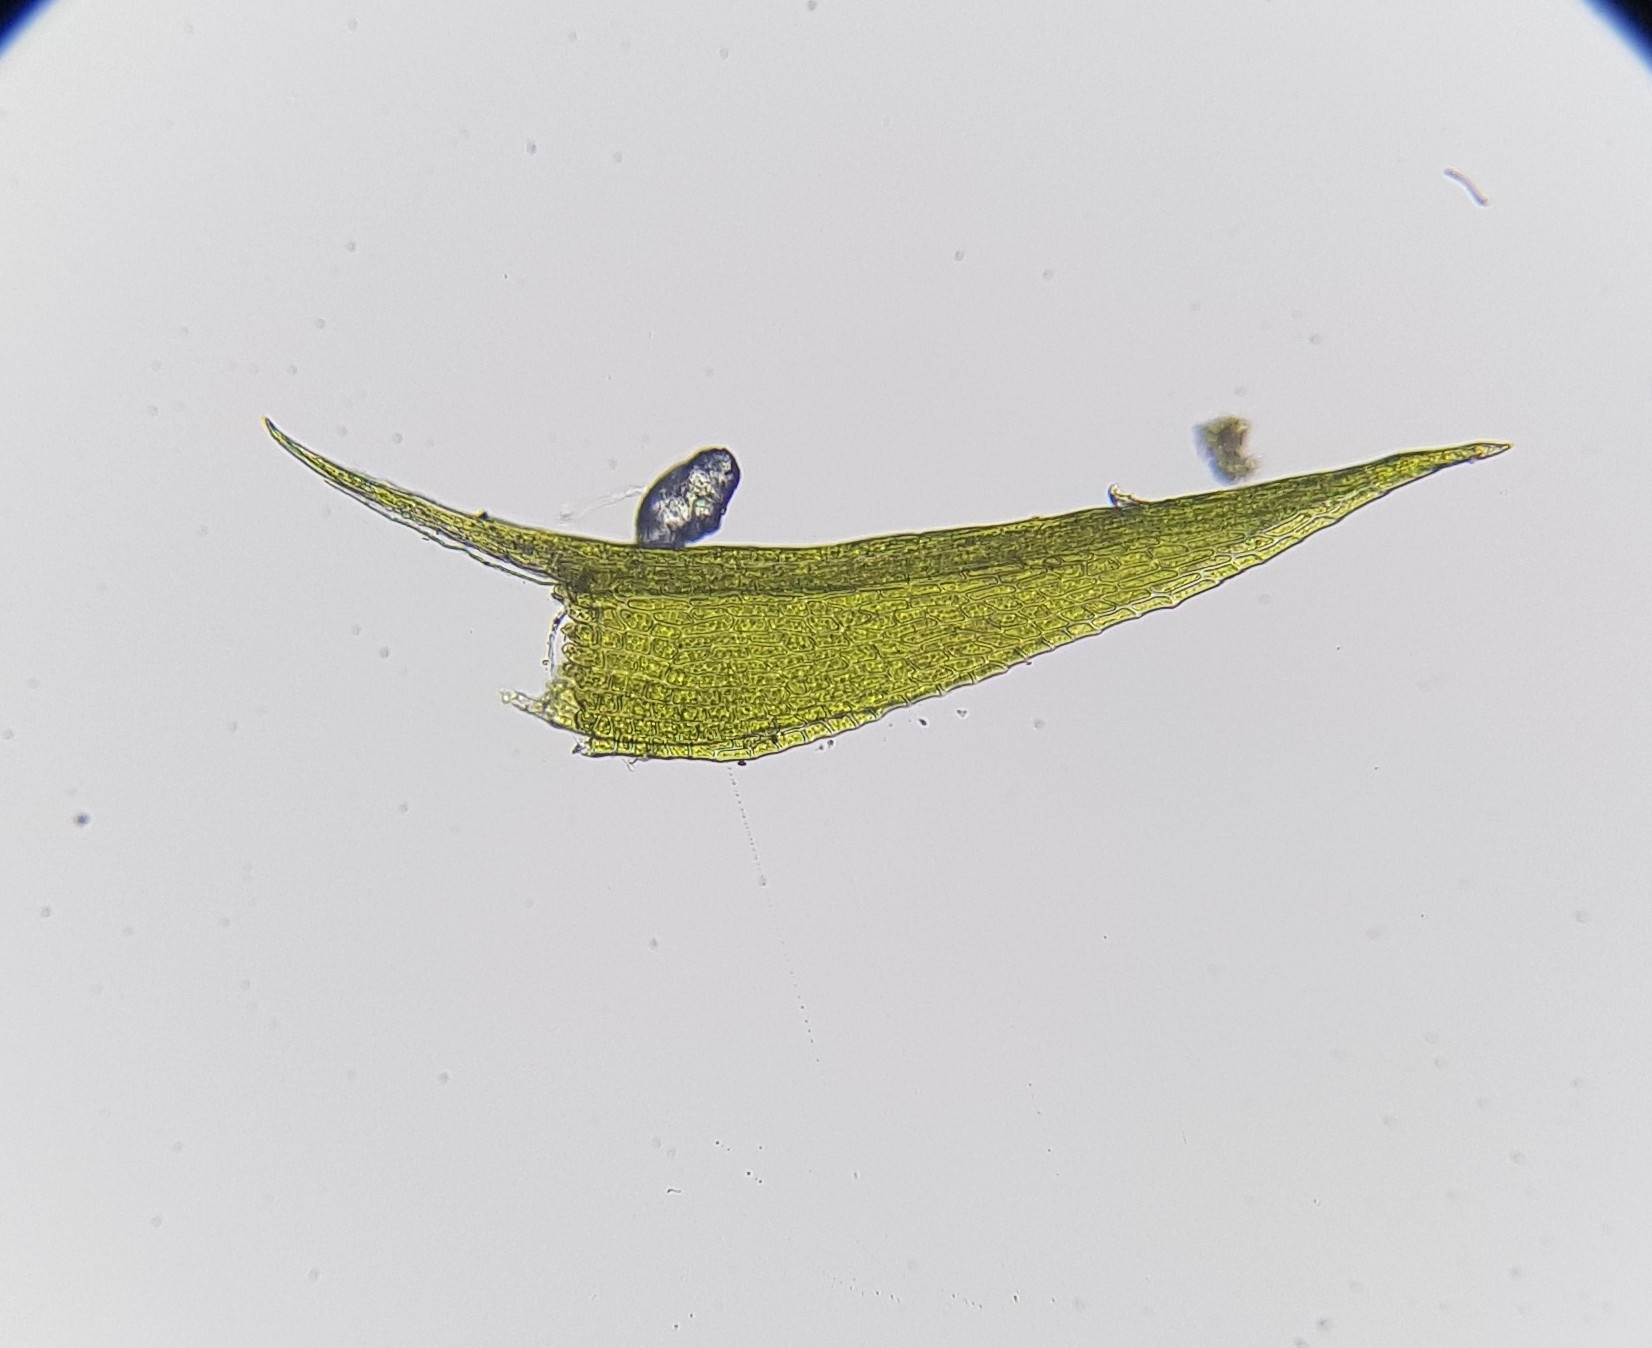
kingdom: Plantae
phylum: Bryophyta
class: Bryopsida
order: Archidiales
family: Archidiaceae
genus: Archidium
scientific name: Archidium alternifolium
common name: Clay earth-moss
